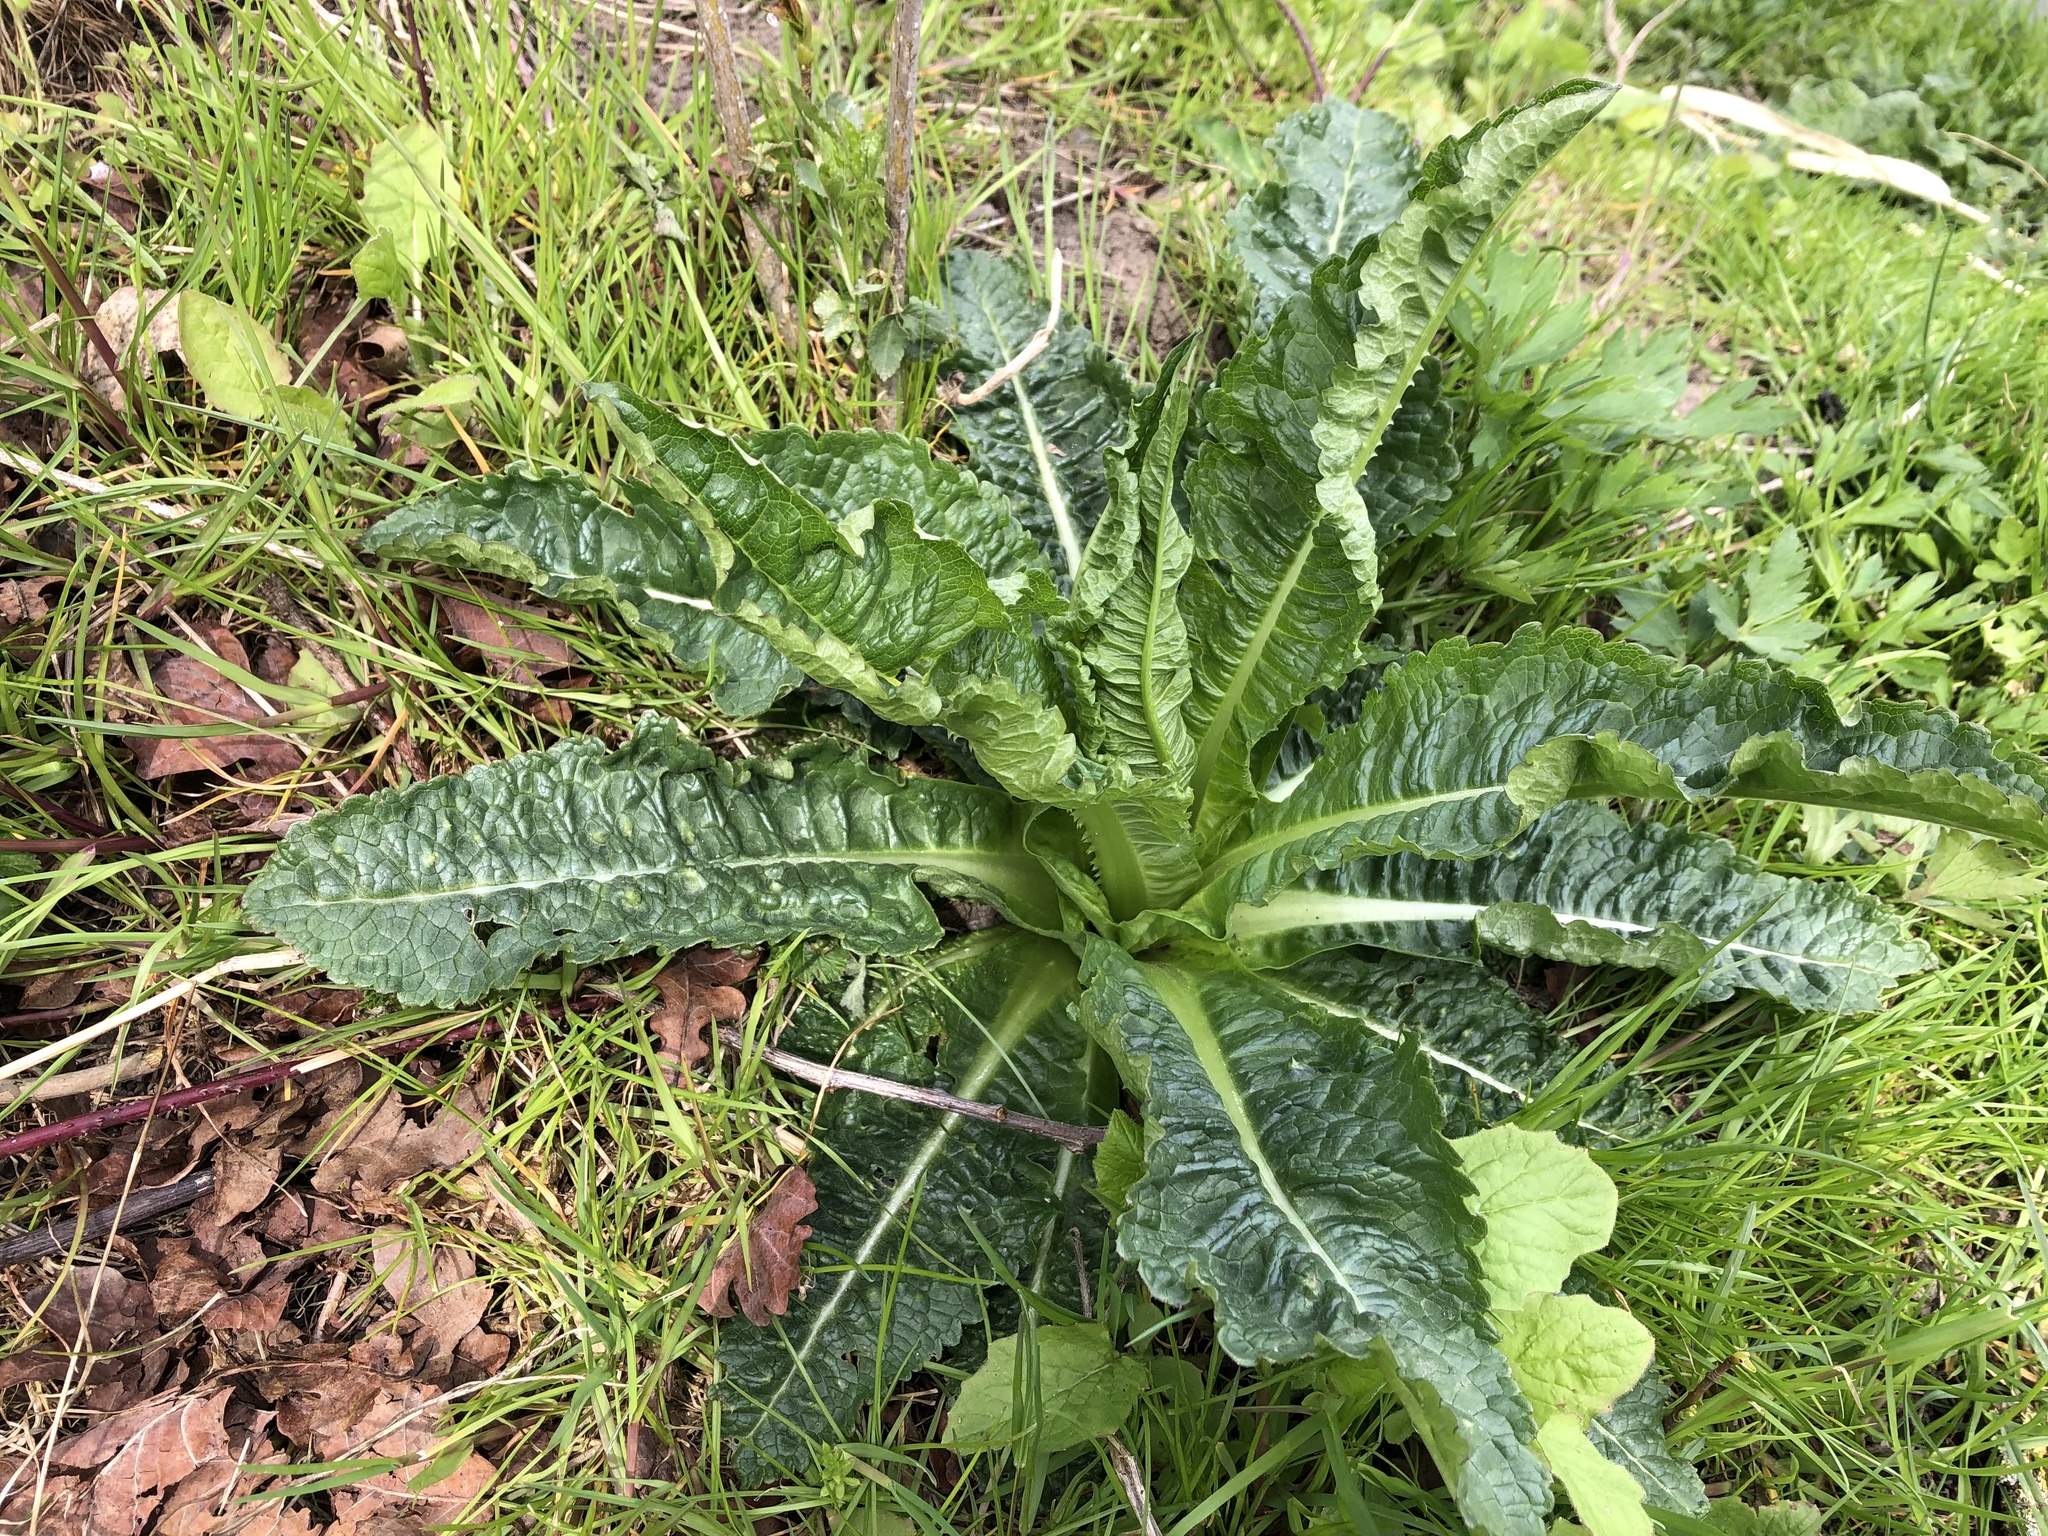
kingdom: Plantae
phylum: Tracheophyta
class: Magnoliopsida
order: Dipsacales
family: Caprifoliaceae
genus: Dipsacus
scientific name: Dipsacus fullonum
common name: Teasel
